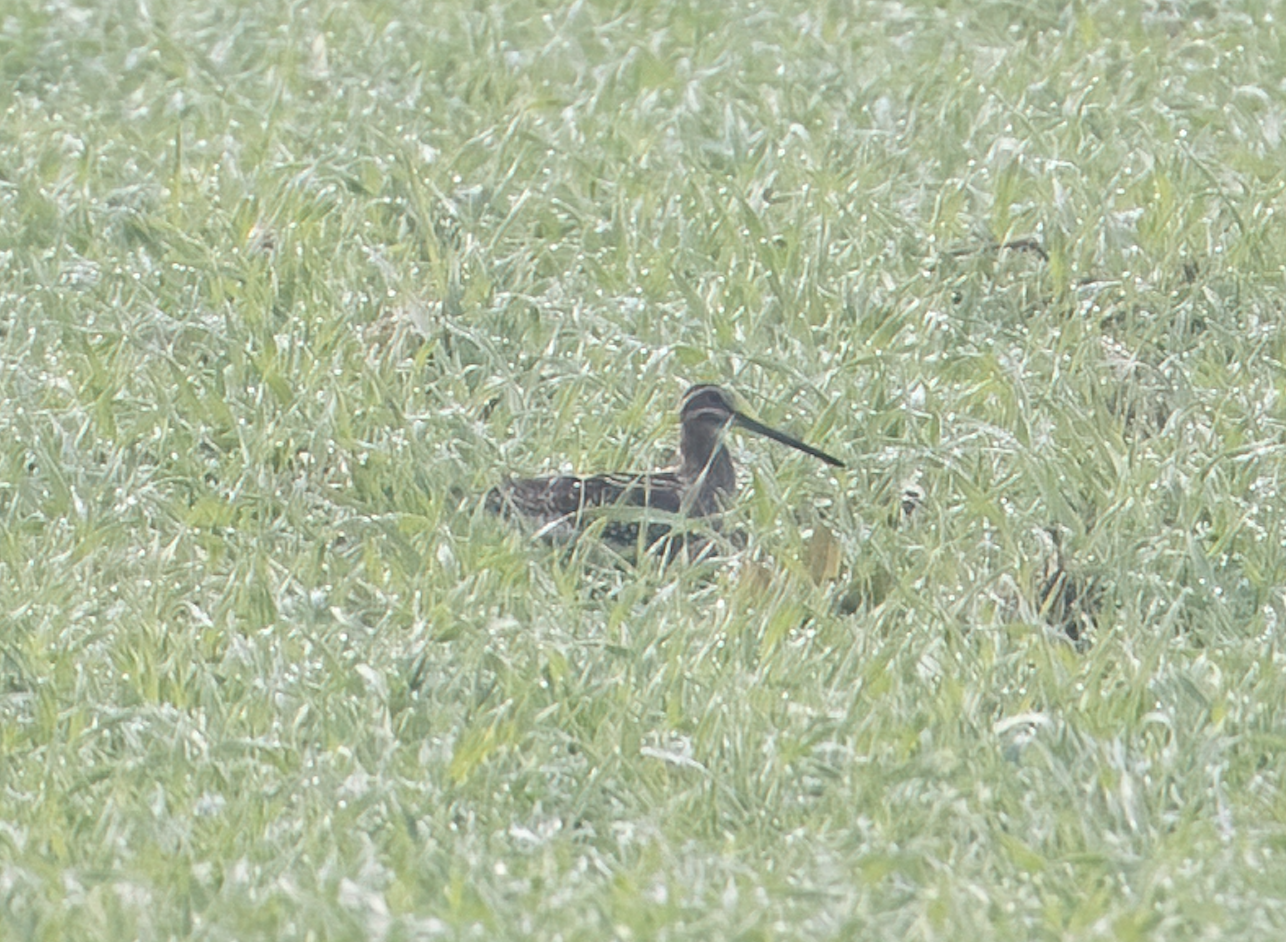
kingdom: Animalia
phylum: Chordata
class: Aves
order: Charadriiformes
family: Scolopacidae
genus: Gallinago
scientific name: Gallinago gallinago
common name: Common snipe
